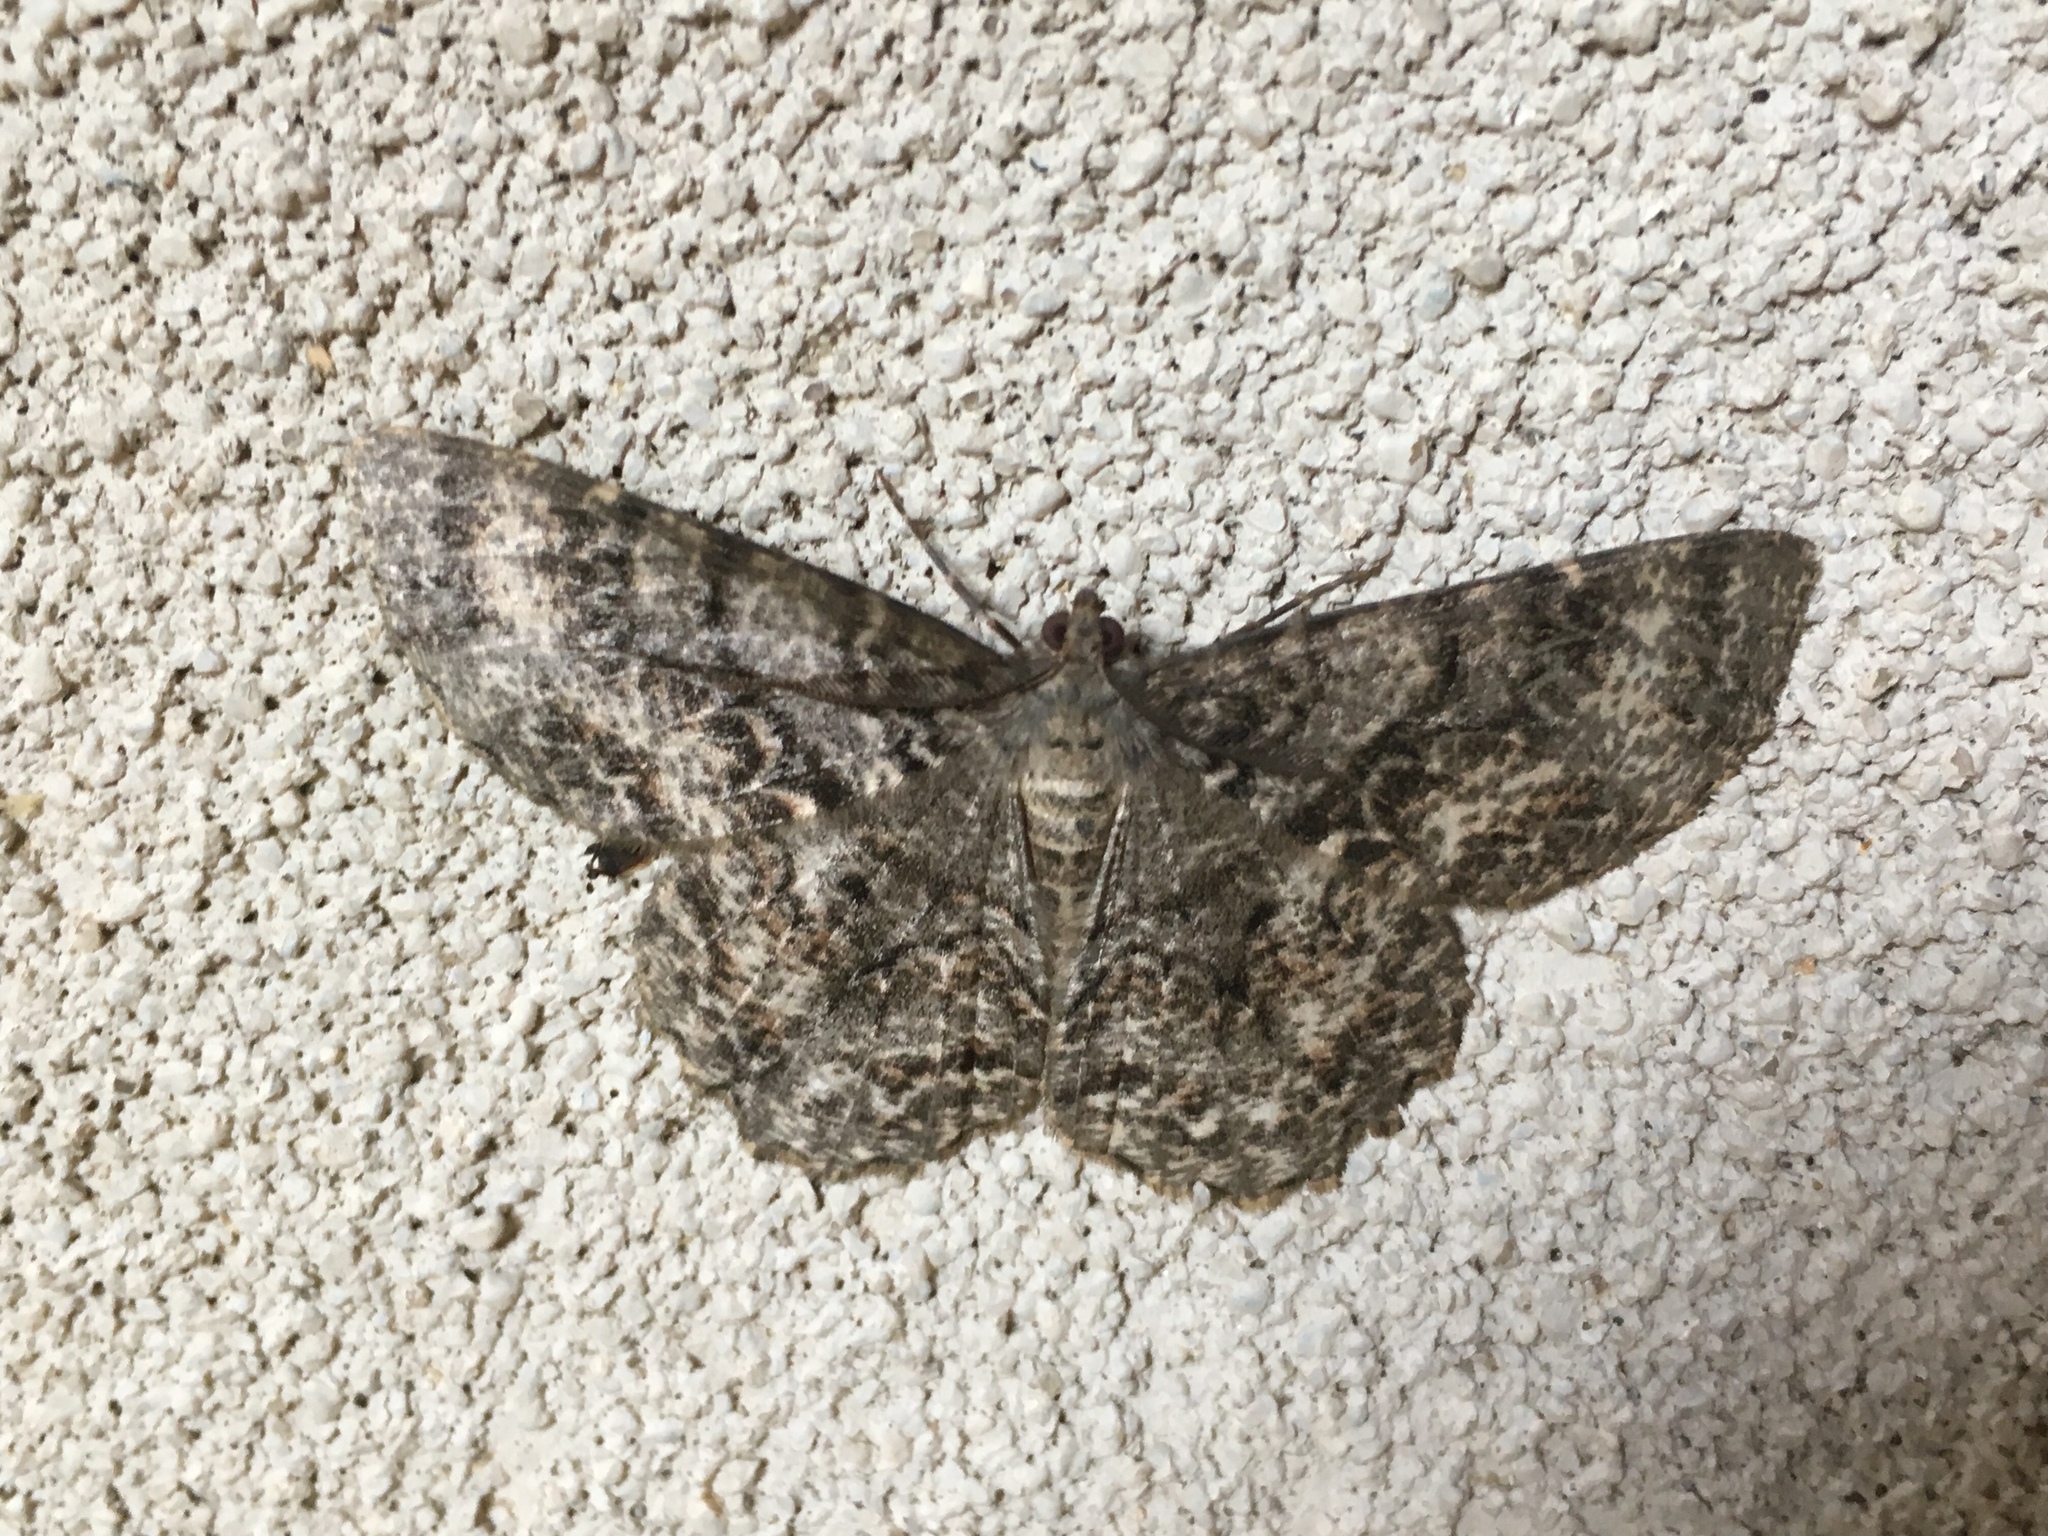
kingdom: Animalia
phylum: Arthropoda
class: Insecta
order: Lepidoptera
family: Geometridae
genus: Epimecis
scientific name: Epimecis hortaria
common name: Tulip-tree beauty
